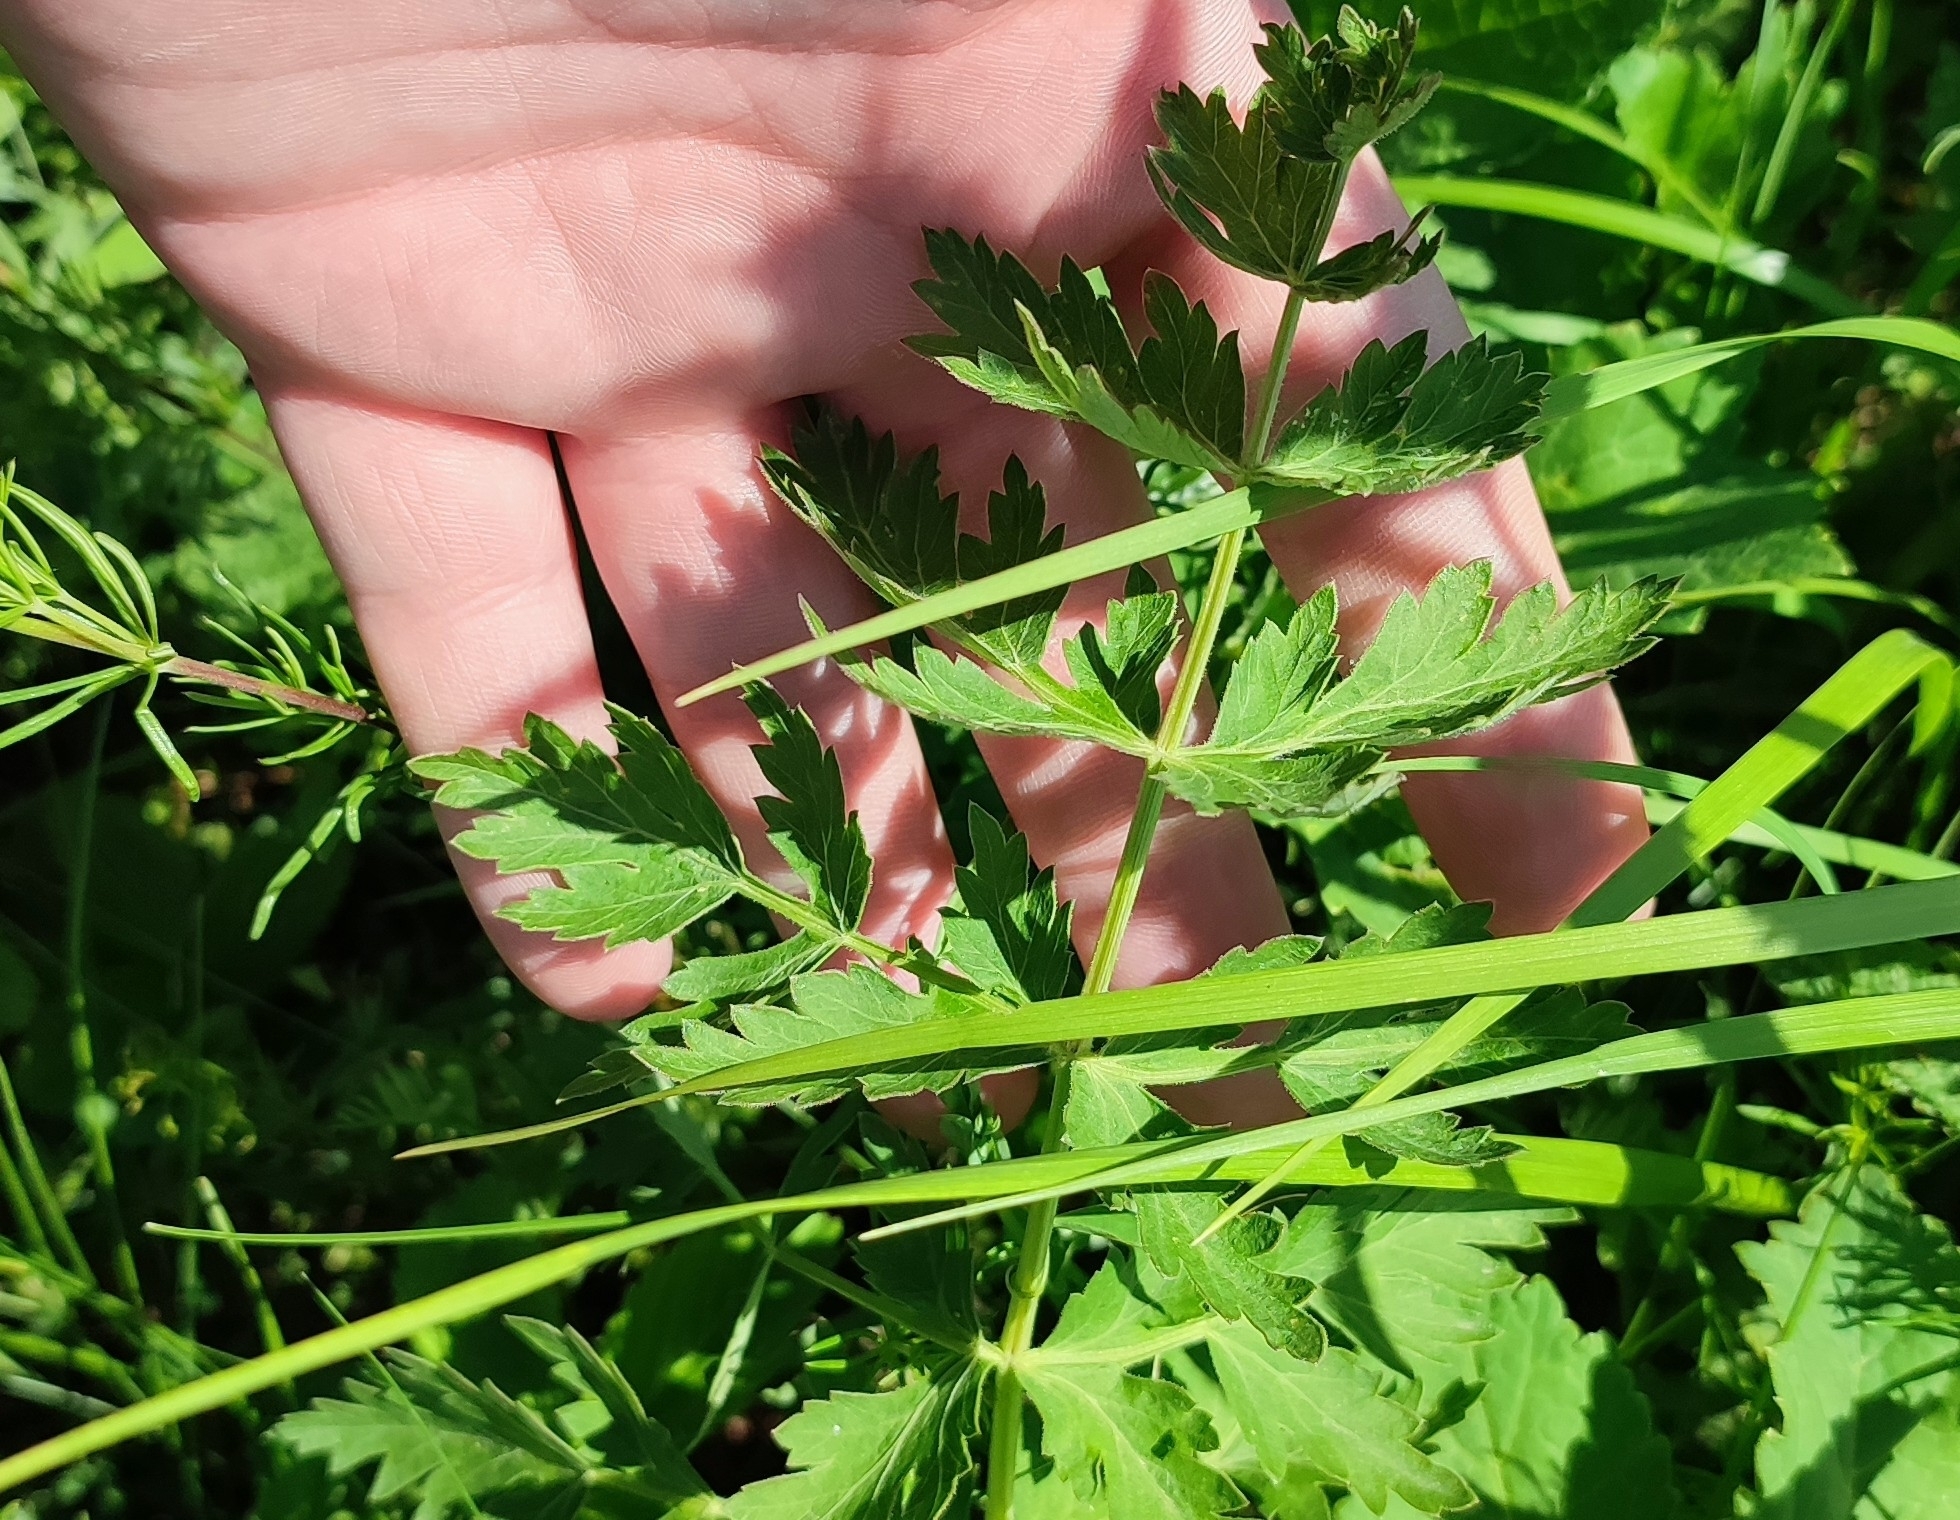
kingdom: Plantae
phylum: Tracheophyta
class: Magnoliopsida
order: Apiales
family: Apiaceae
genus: Seseli
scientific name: Seseli libanotis
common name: Mooncarrot
